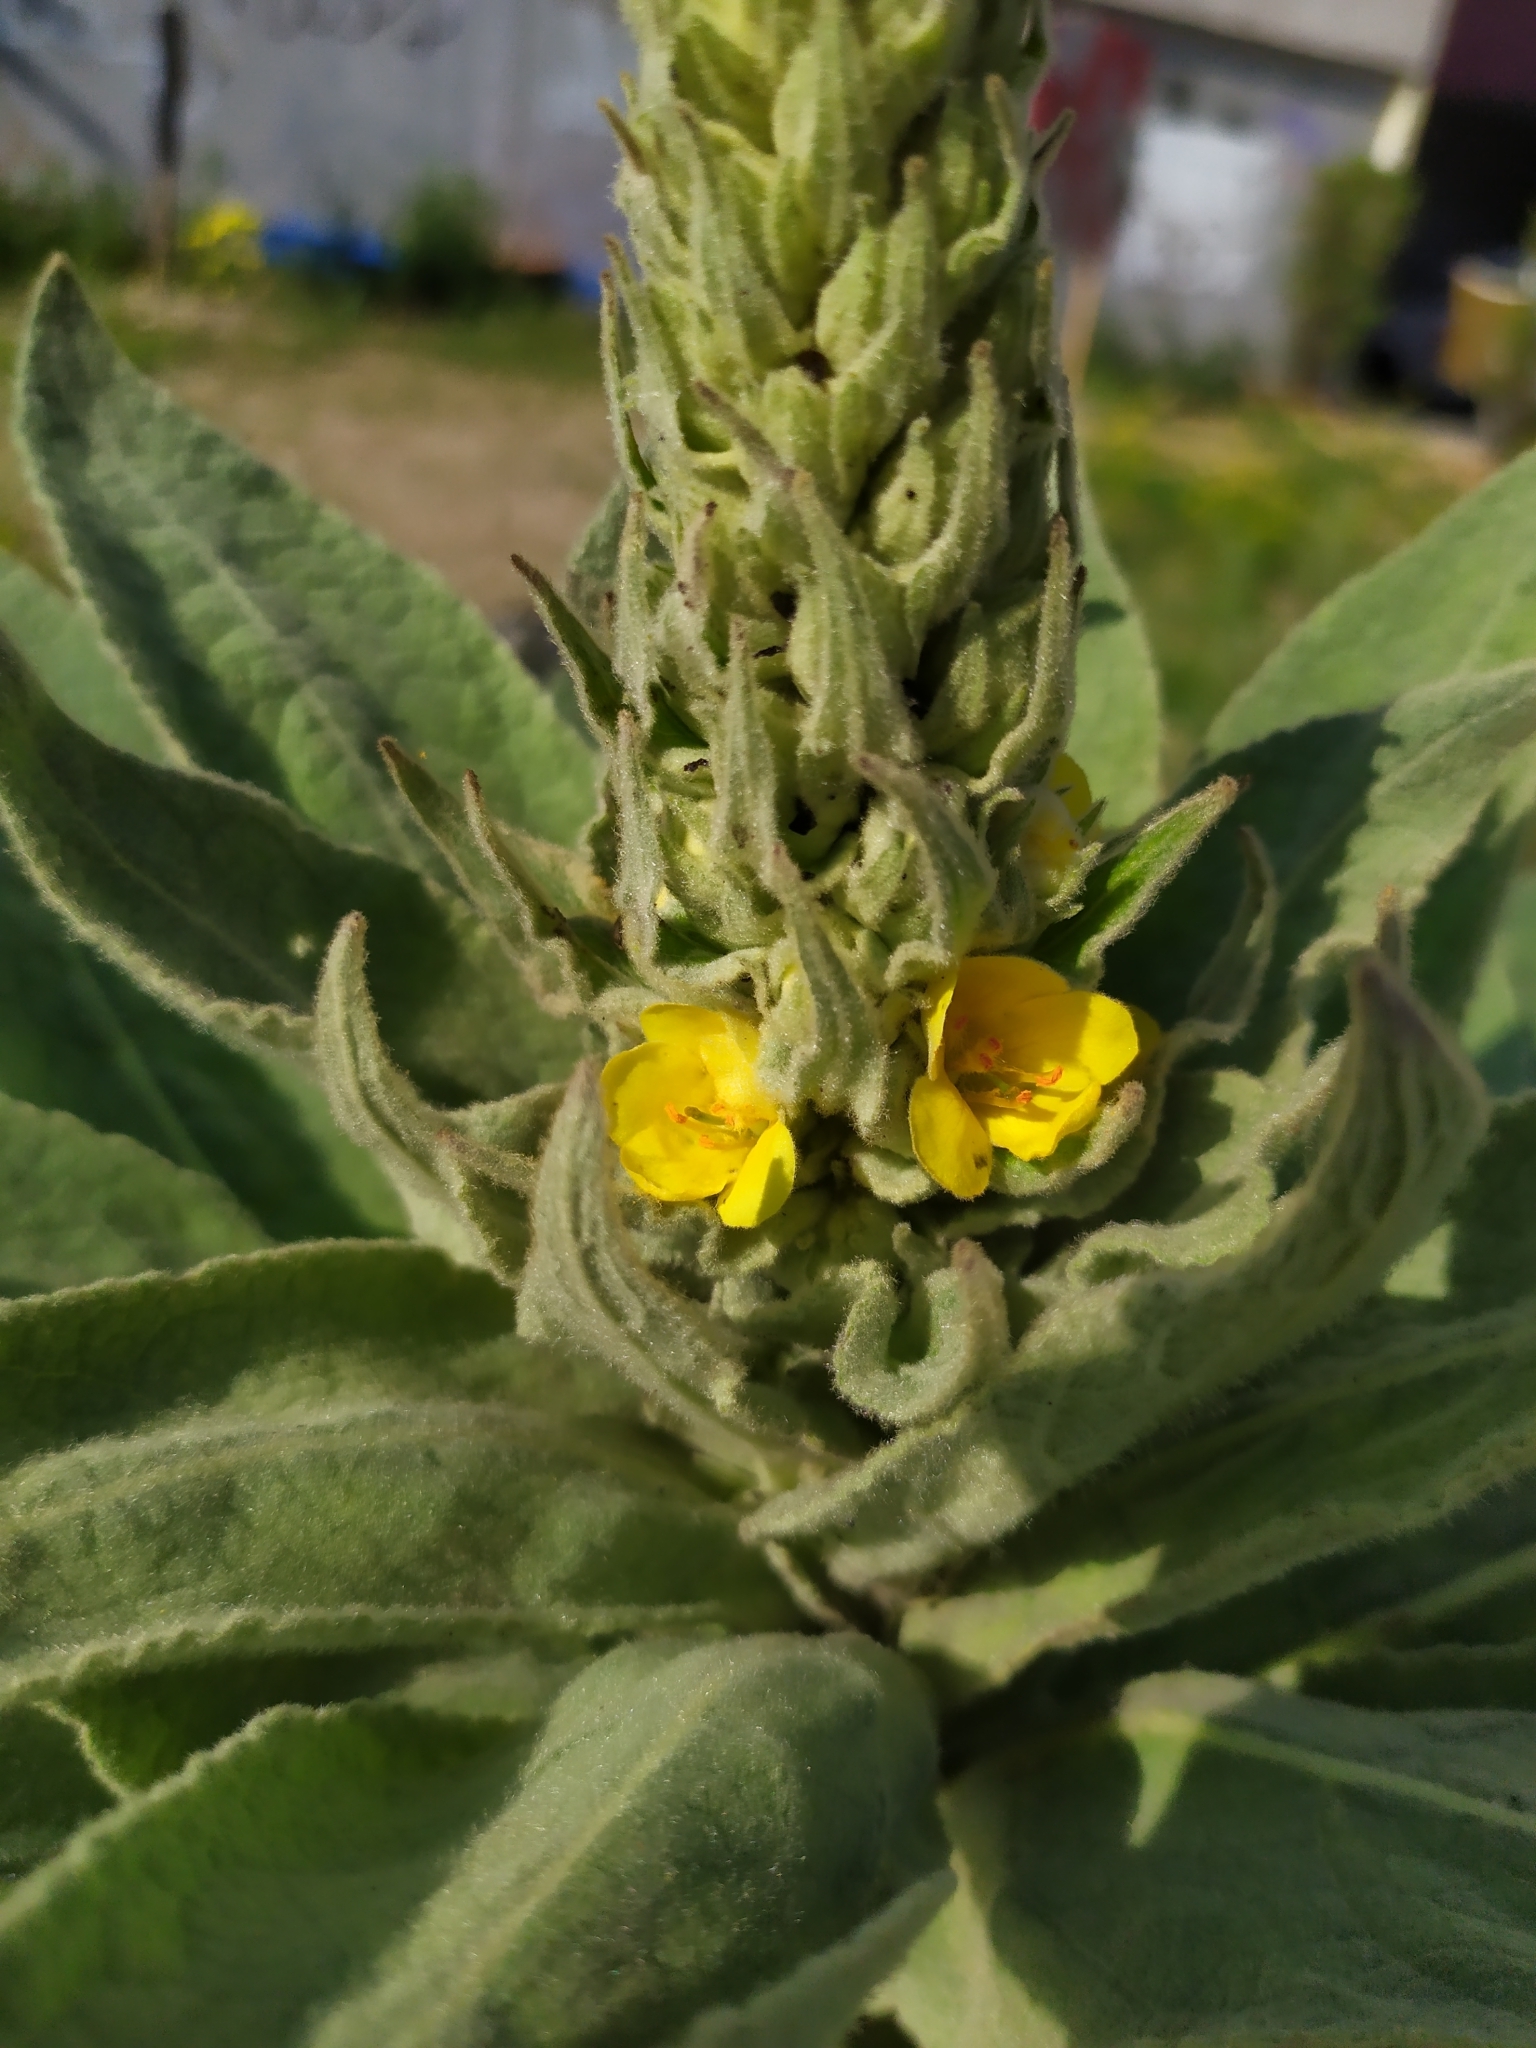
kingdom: Plantae
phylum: Tracheophyta
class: Magnoliopsida
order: Lamiales
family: Scrophulariaceae
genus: Verbascum
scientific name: Verbascum thapsus
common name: Common mullein
